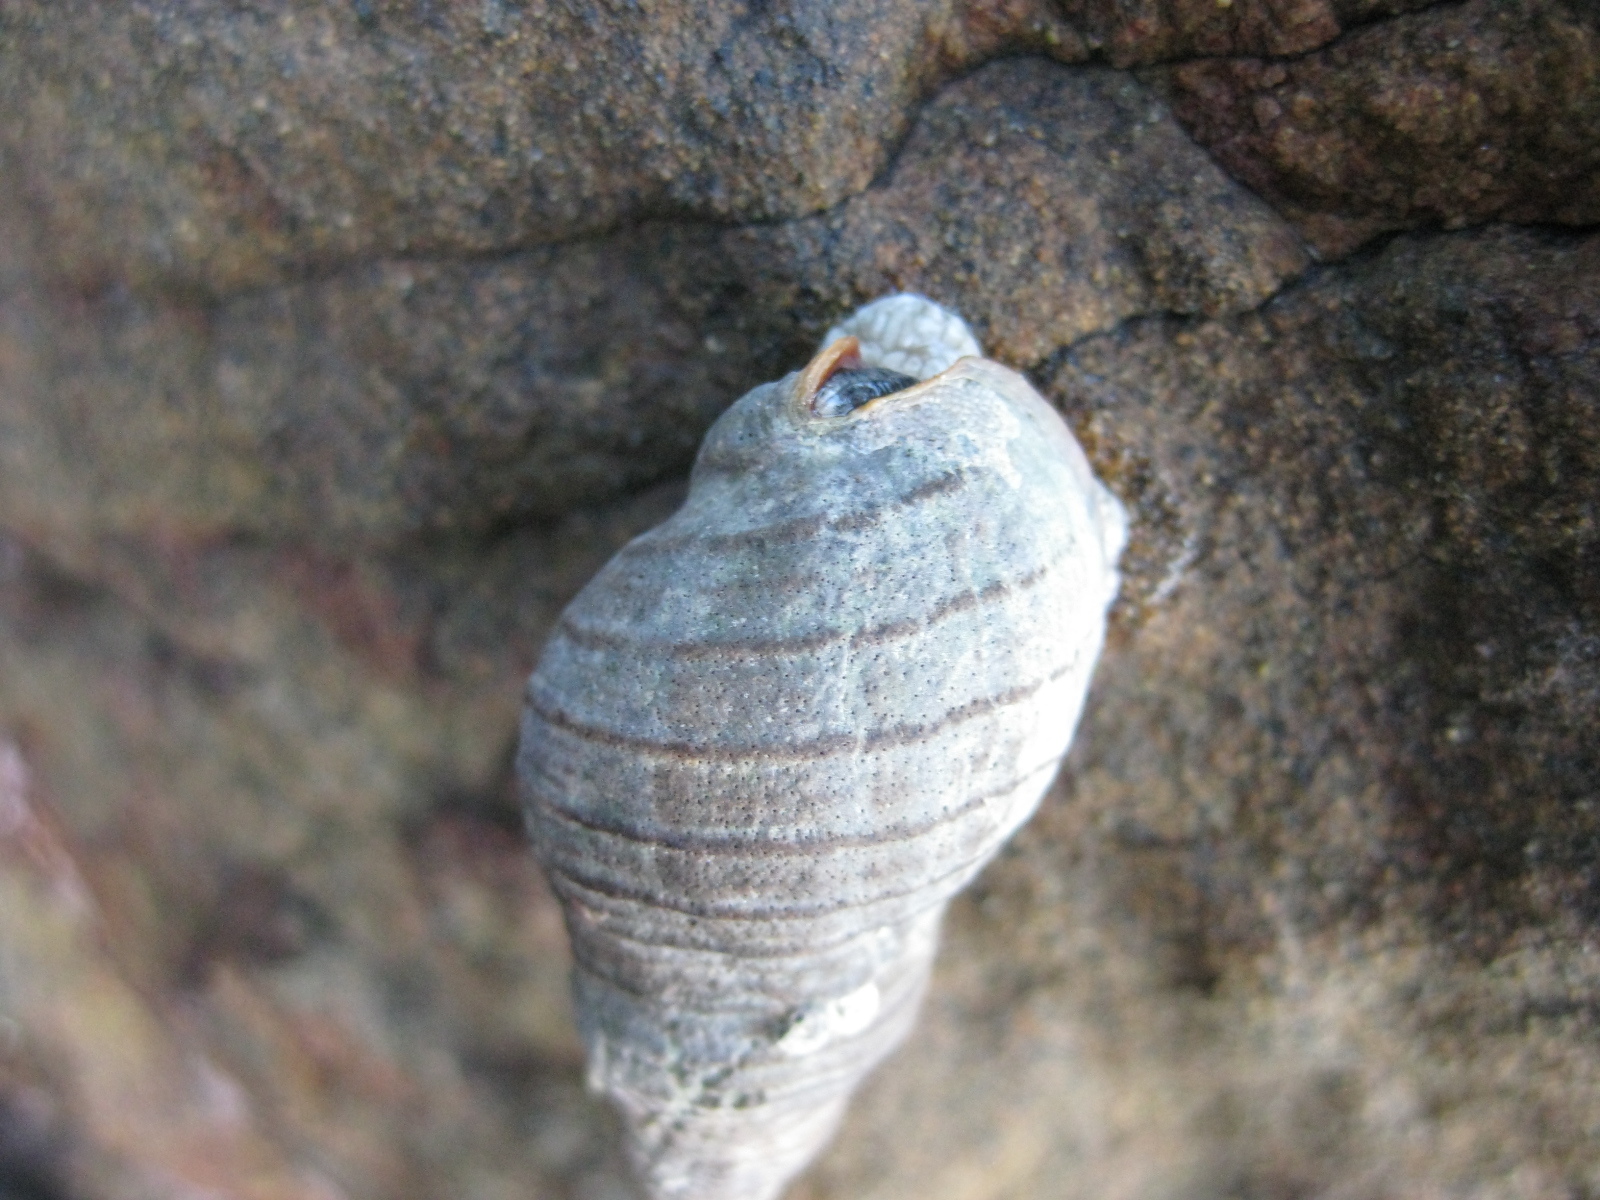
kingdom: Animalia
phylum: Mollusca
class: Gastropoda
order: Neogastropoda
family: Cominellidae
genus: Cominella
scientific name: Cominella virgata
